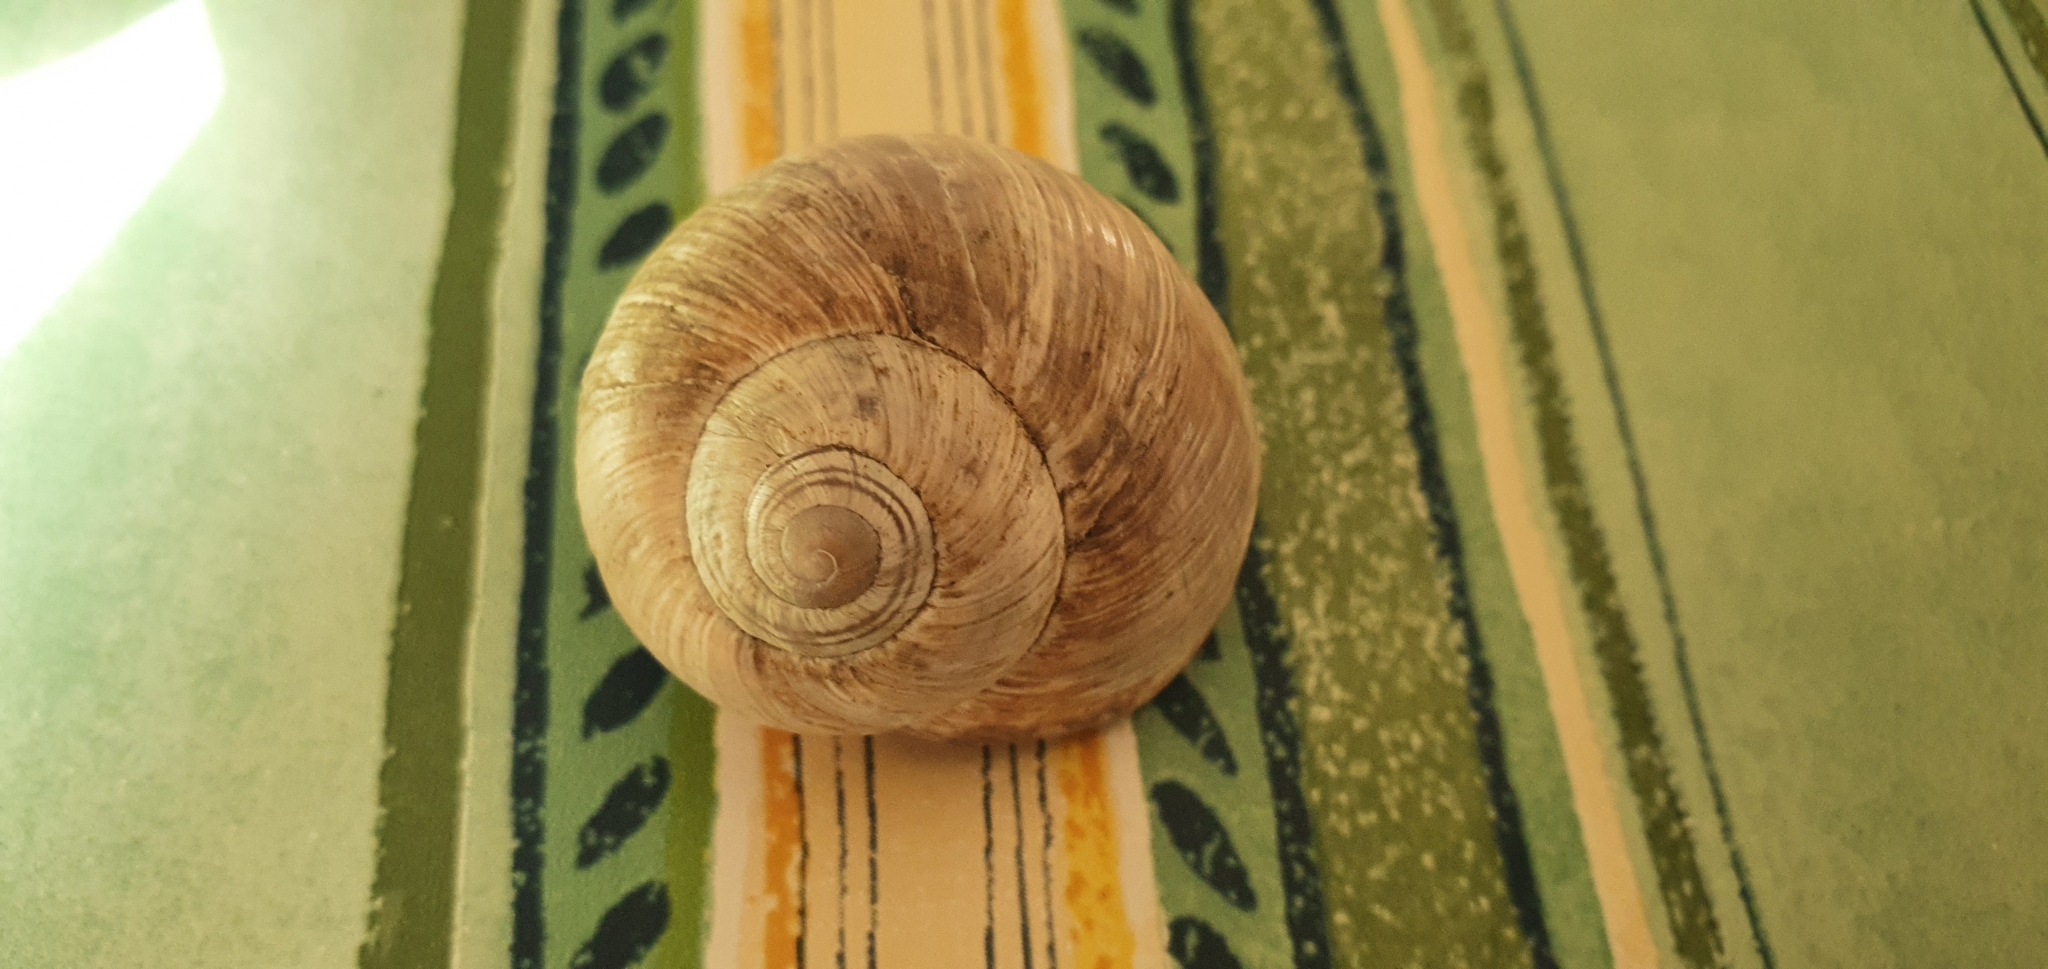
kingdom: Animalia
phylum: Mollusca
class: Gastropoda
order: Stylommatophora
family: Helicidae
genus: Helix
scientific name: Helix melanostoma
